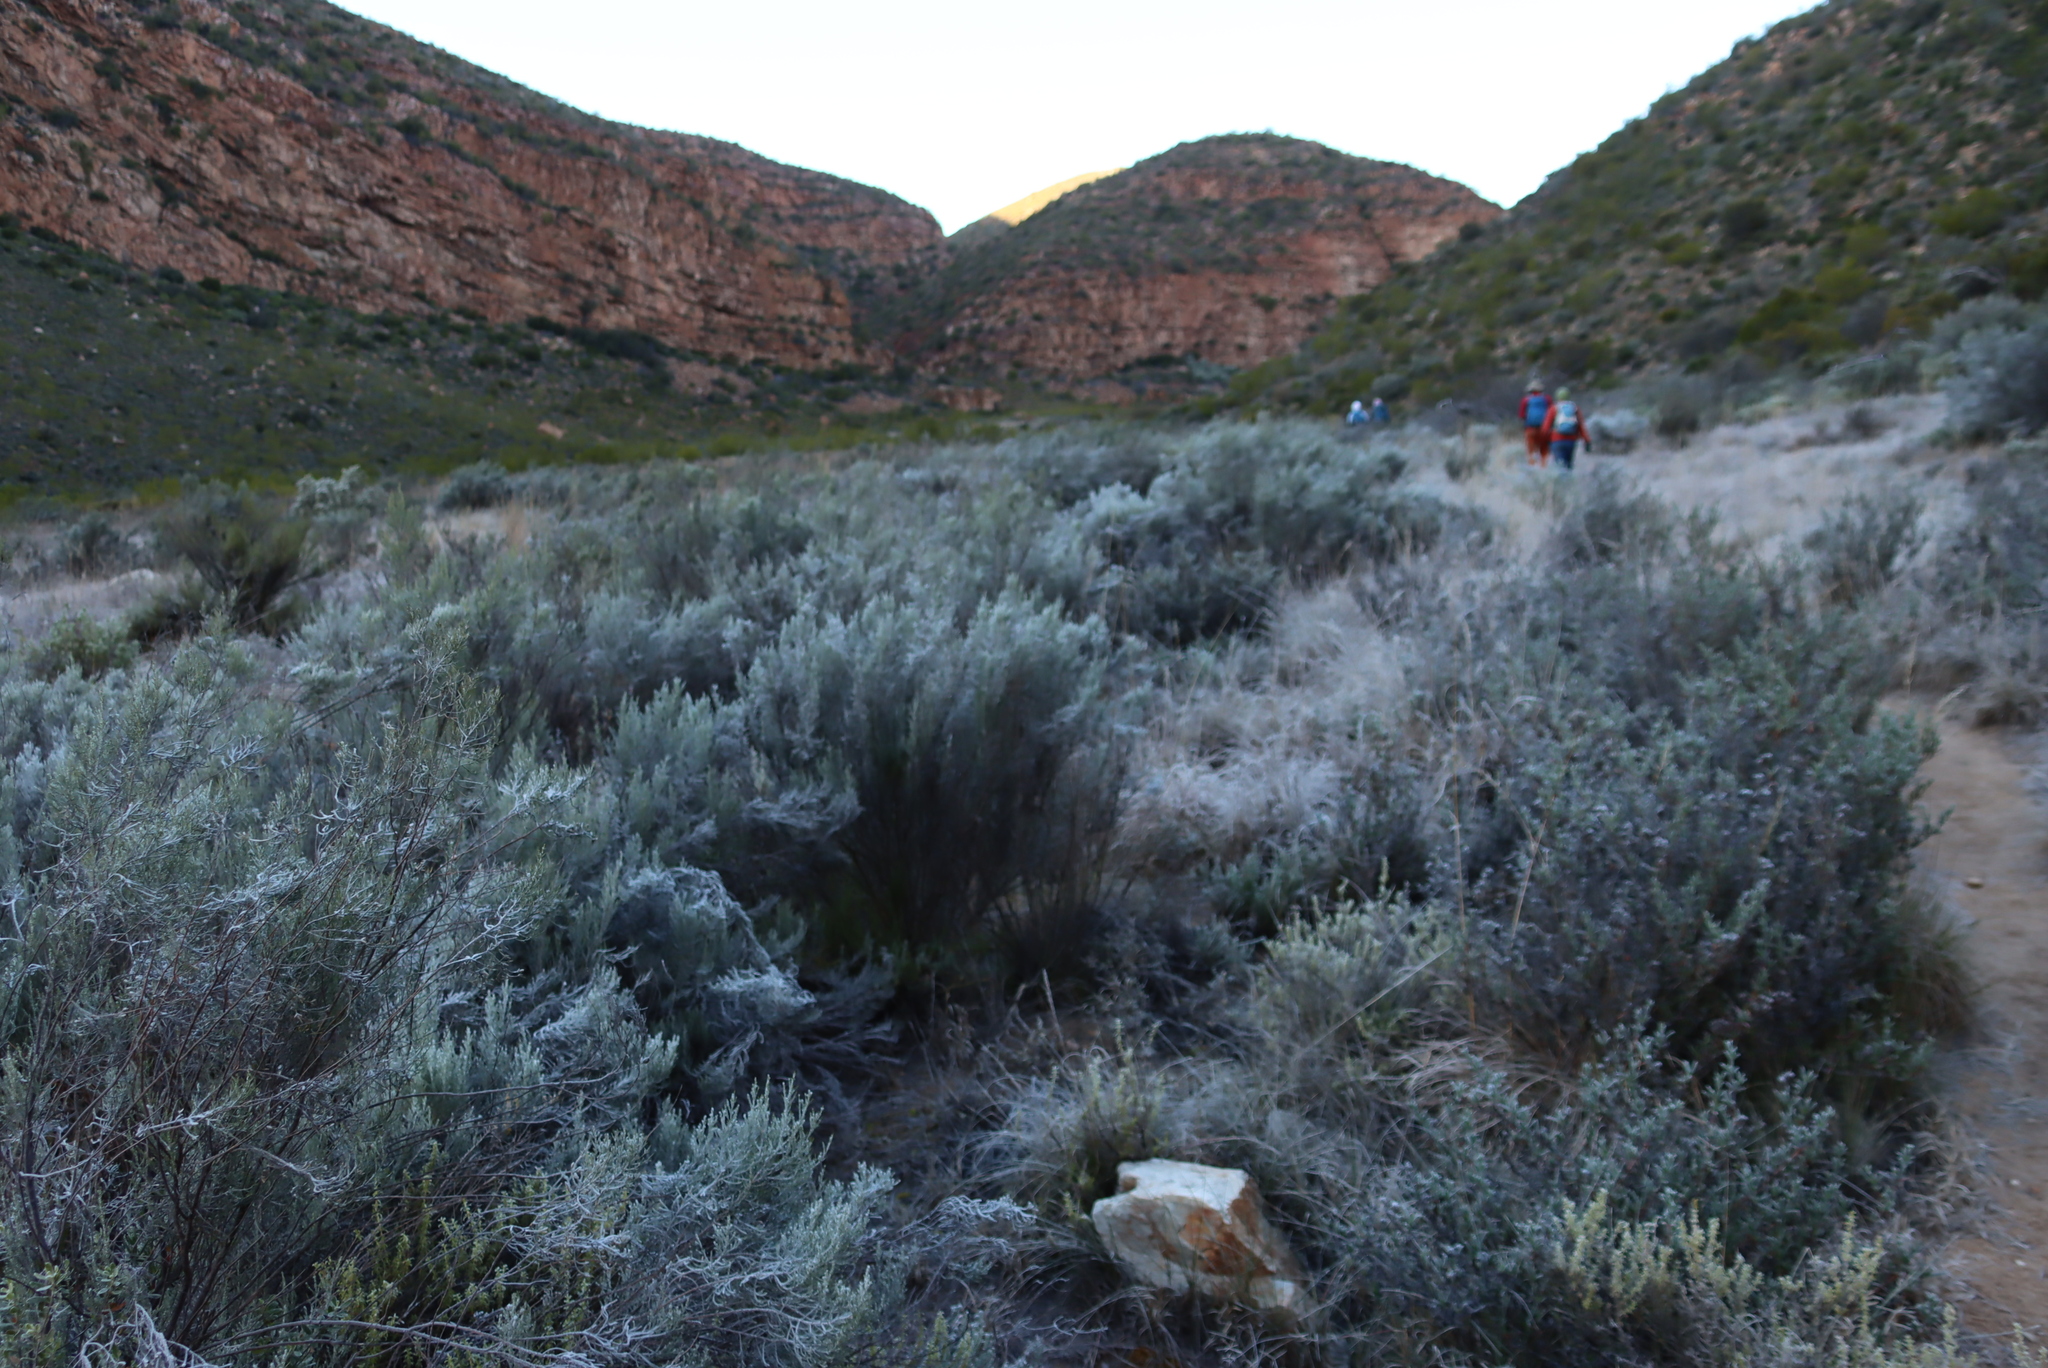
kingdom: Plantae
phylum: Tracheophyta
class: Magnoliopsida
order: Asterales
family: Asteraceae
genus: Dicerothamnus
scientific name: Dicerothamnus rhinocerotis
